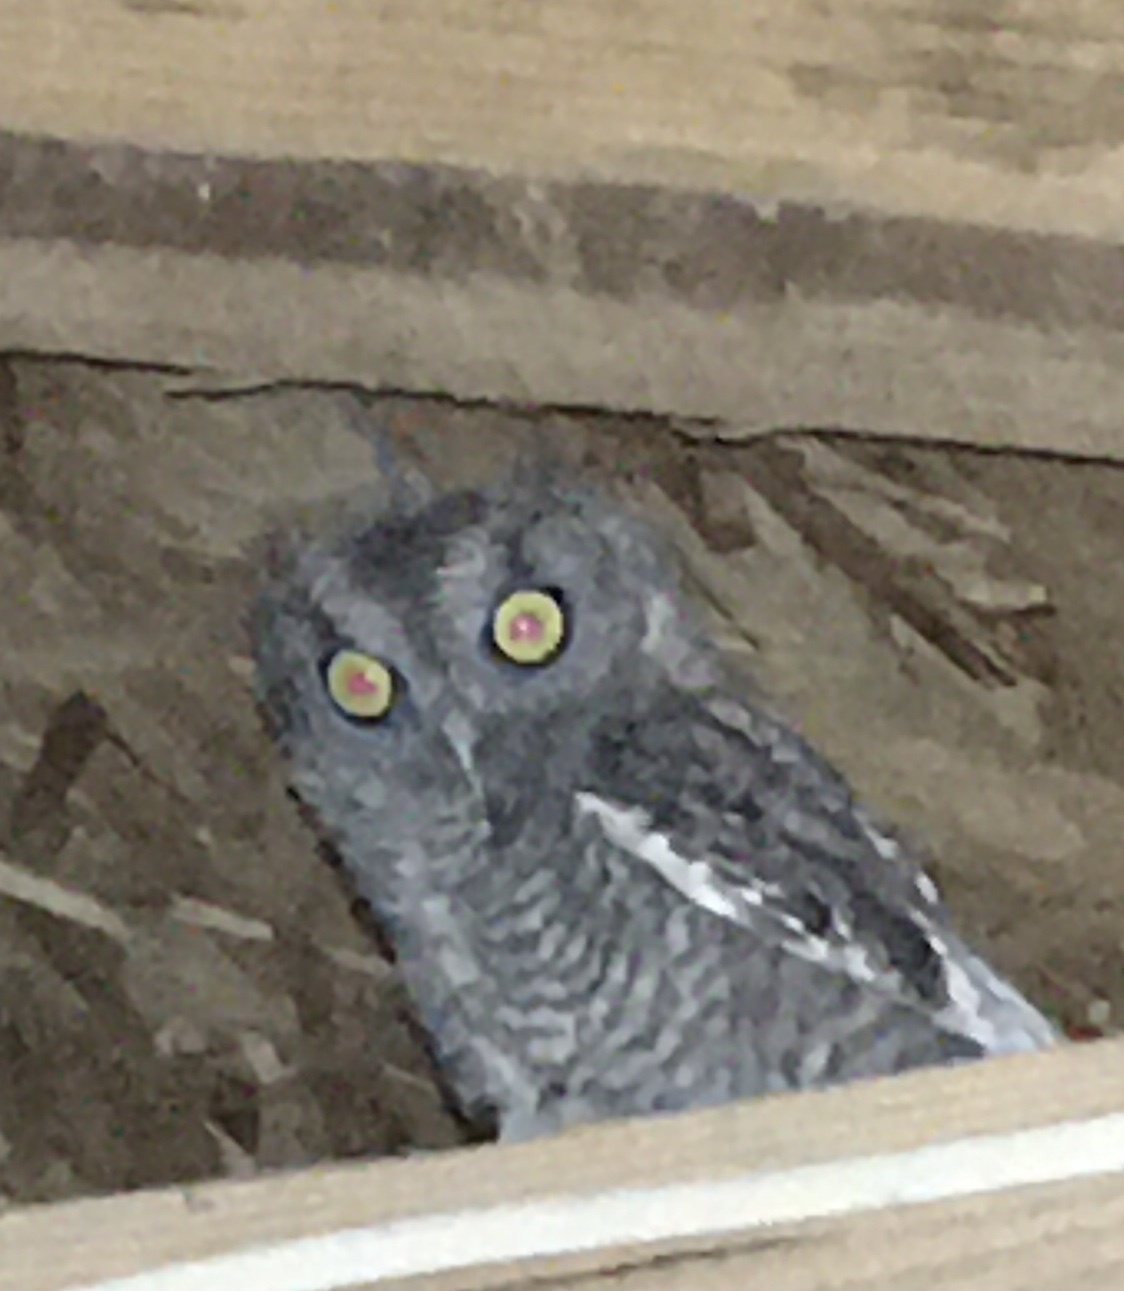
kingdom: Animalia
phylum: Chordata
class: Aves
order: Strigiformes
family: Strigidae
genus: Megascops
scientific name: Megascops kennicottii
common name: Western screech-owl
